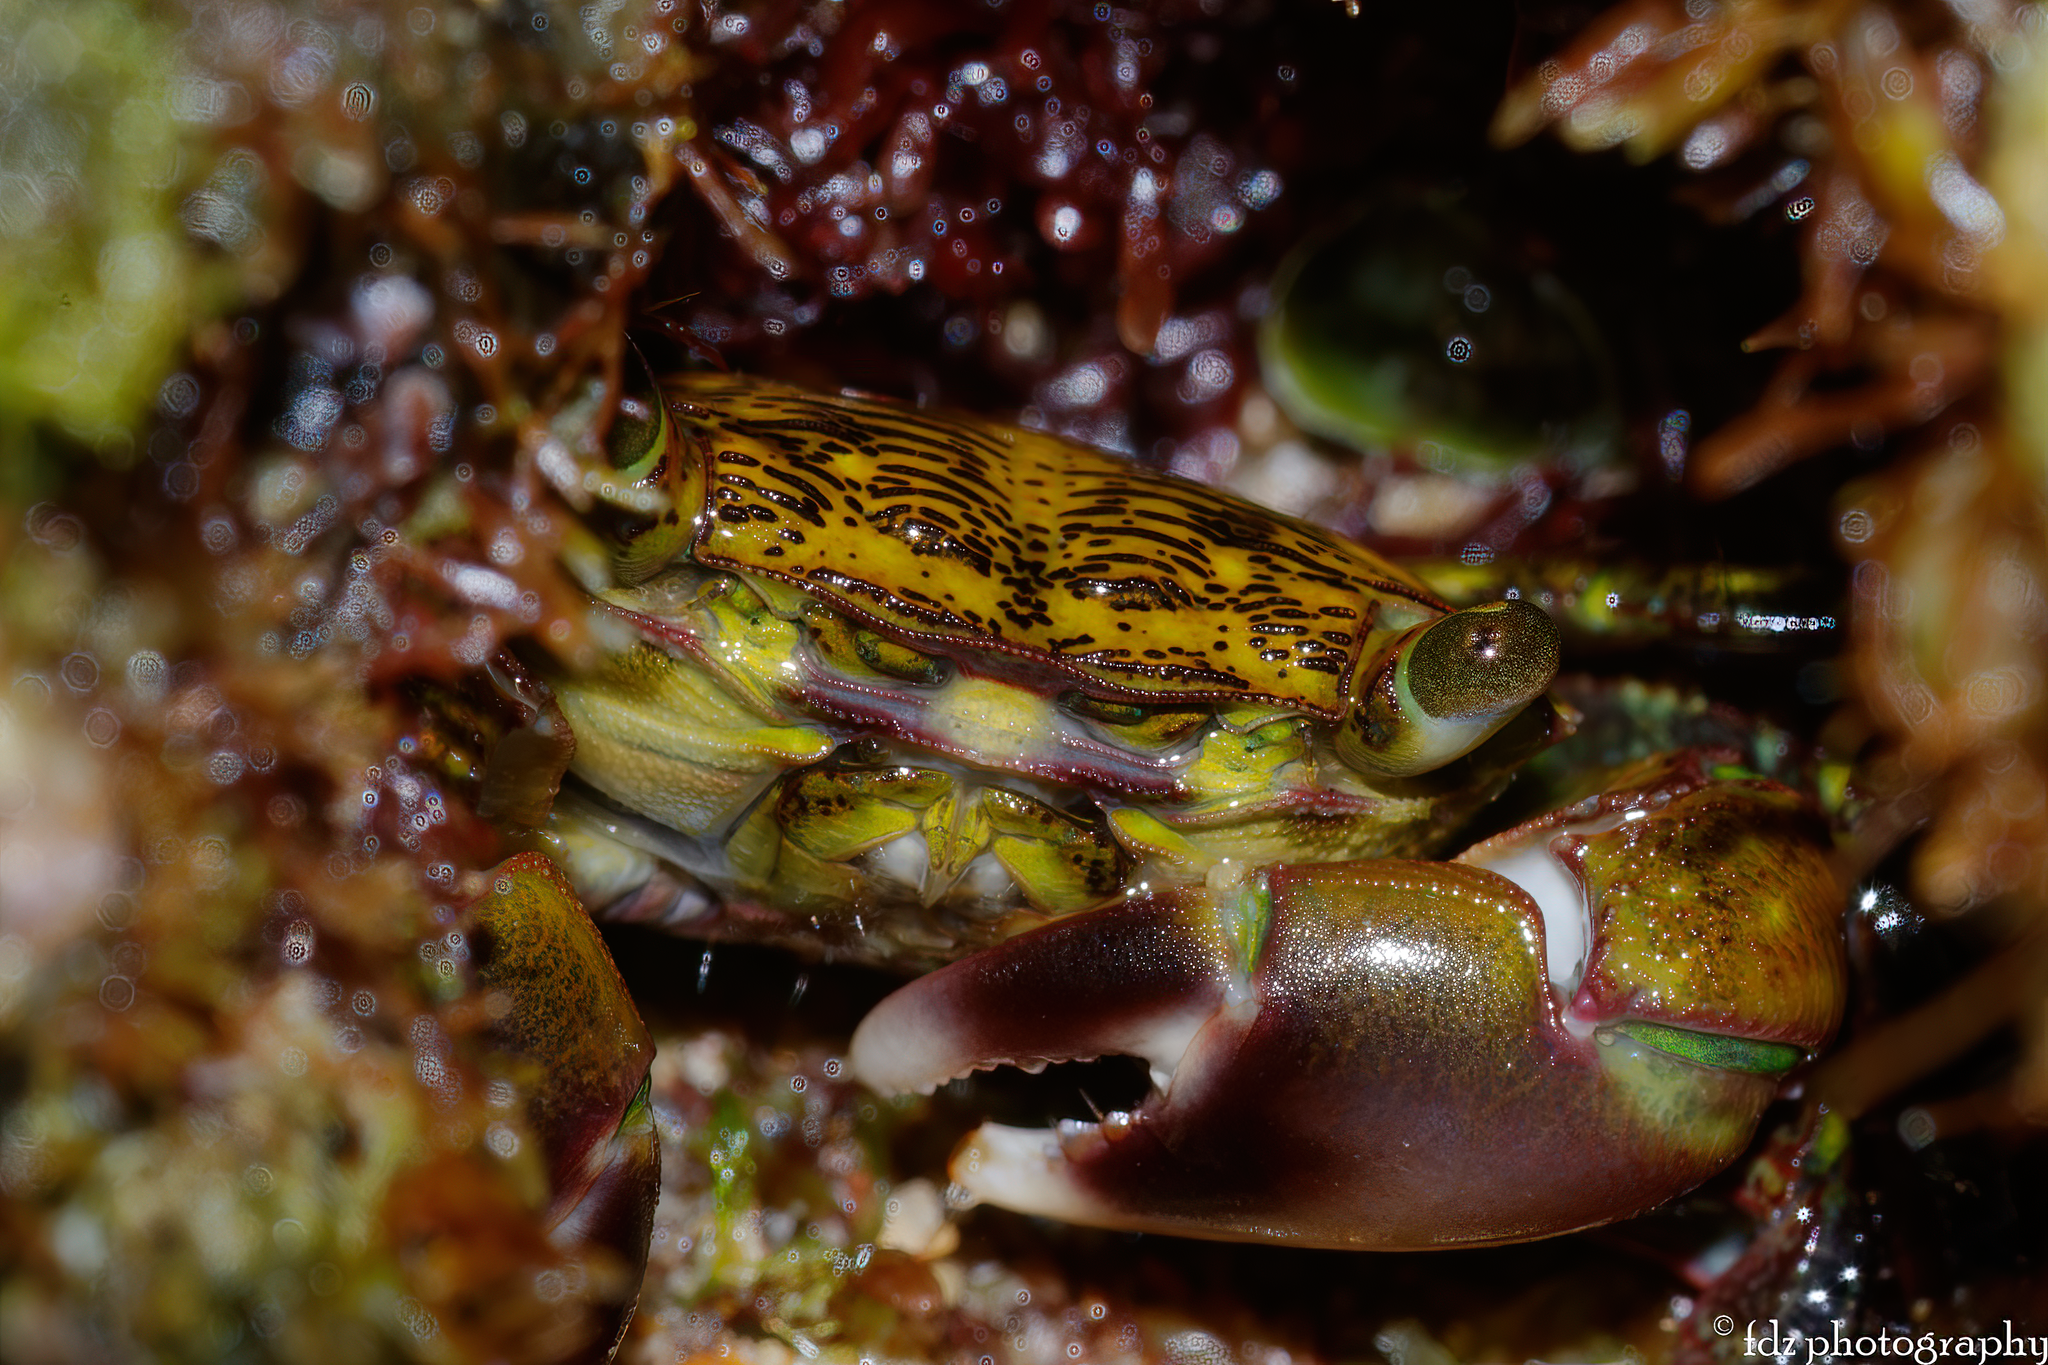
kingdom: Animalia
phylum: Arthropoda
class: Malacostraca
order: Decapoda
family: Grapsidae
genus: Pachygrapsus
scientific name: Pachygrapsus transversus
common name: Mottled shore crab
